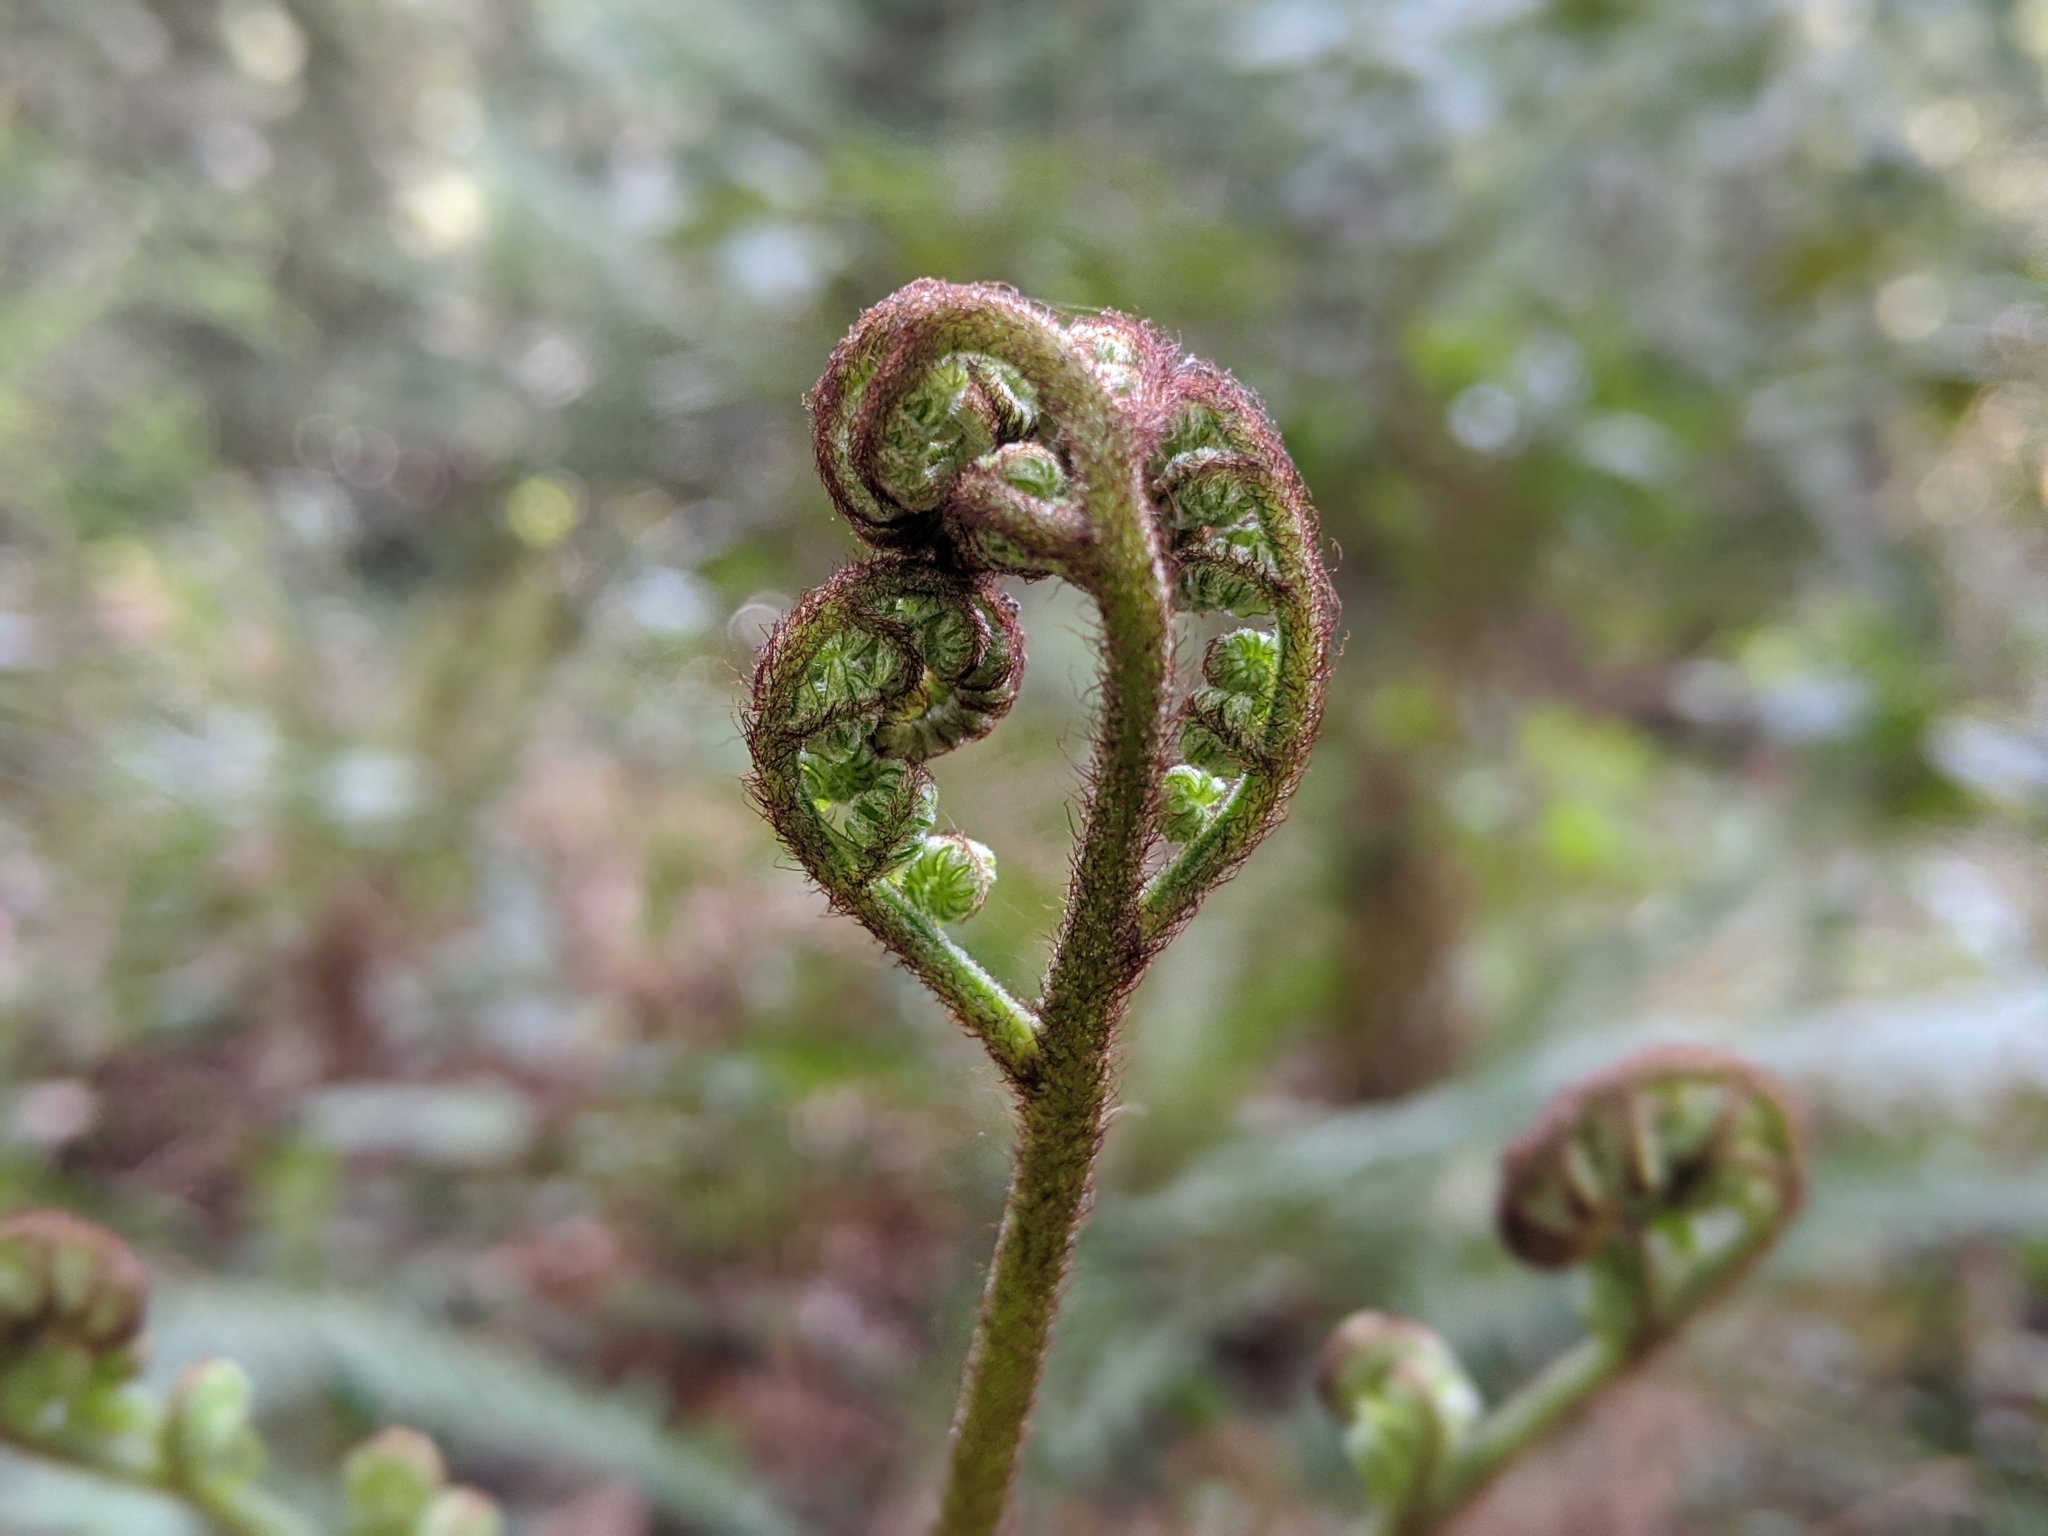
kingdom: Plantae
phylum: Tracheophyta
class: Polypodiopsida
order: Polypodiales
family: Dennstaedtiaceae
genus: Pteridium
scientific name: Pteridium aquilinum
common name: Bracken
